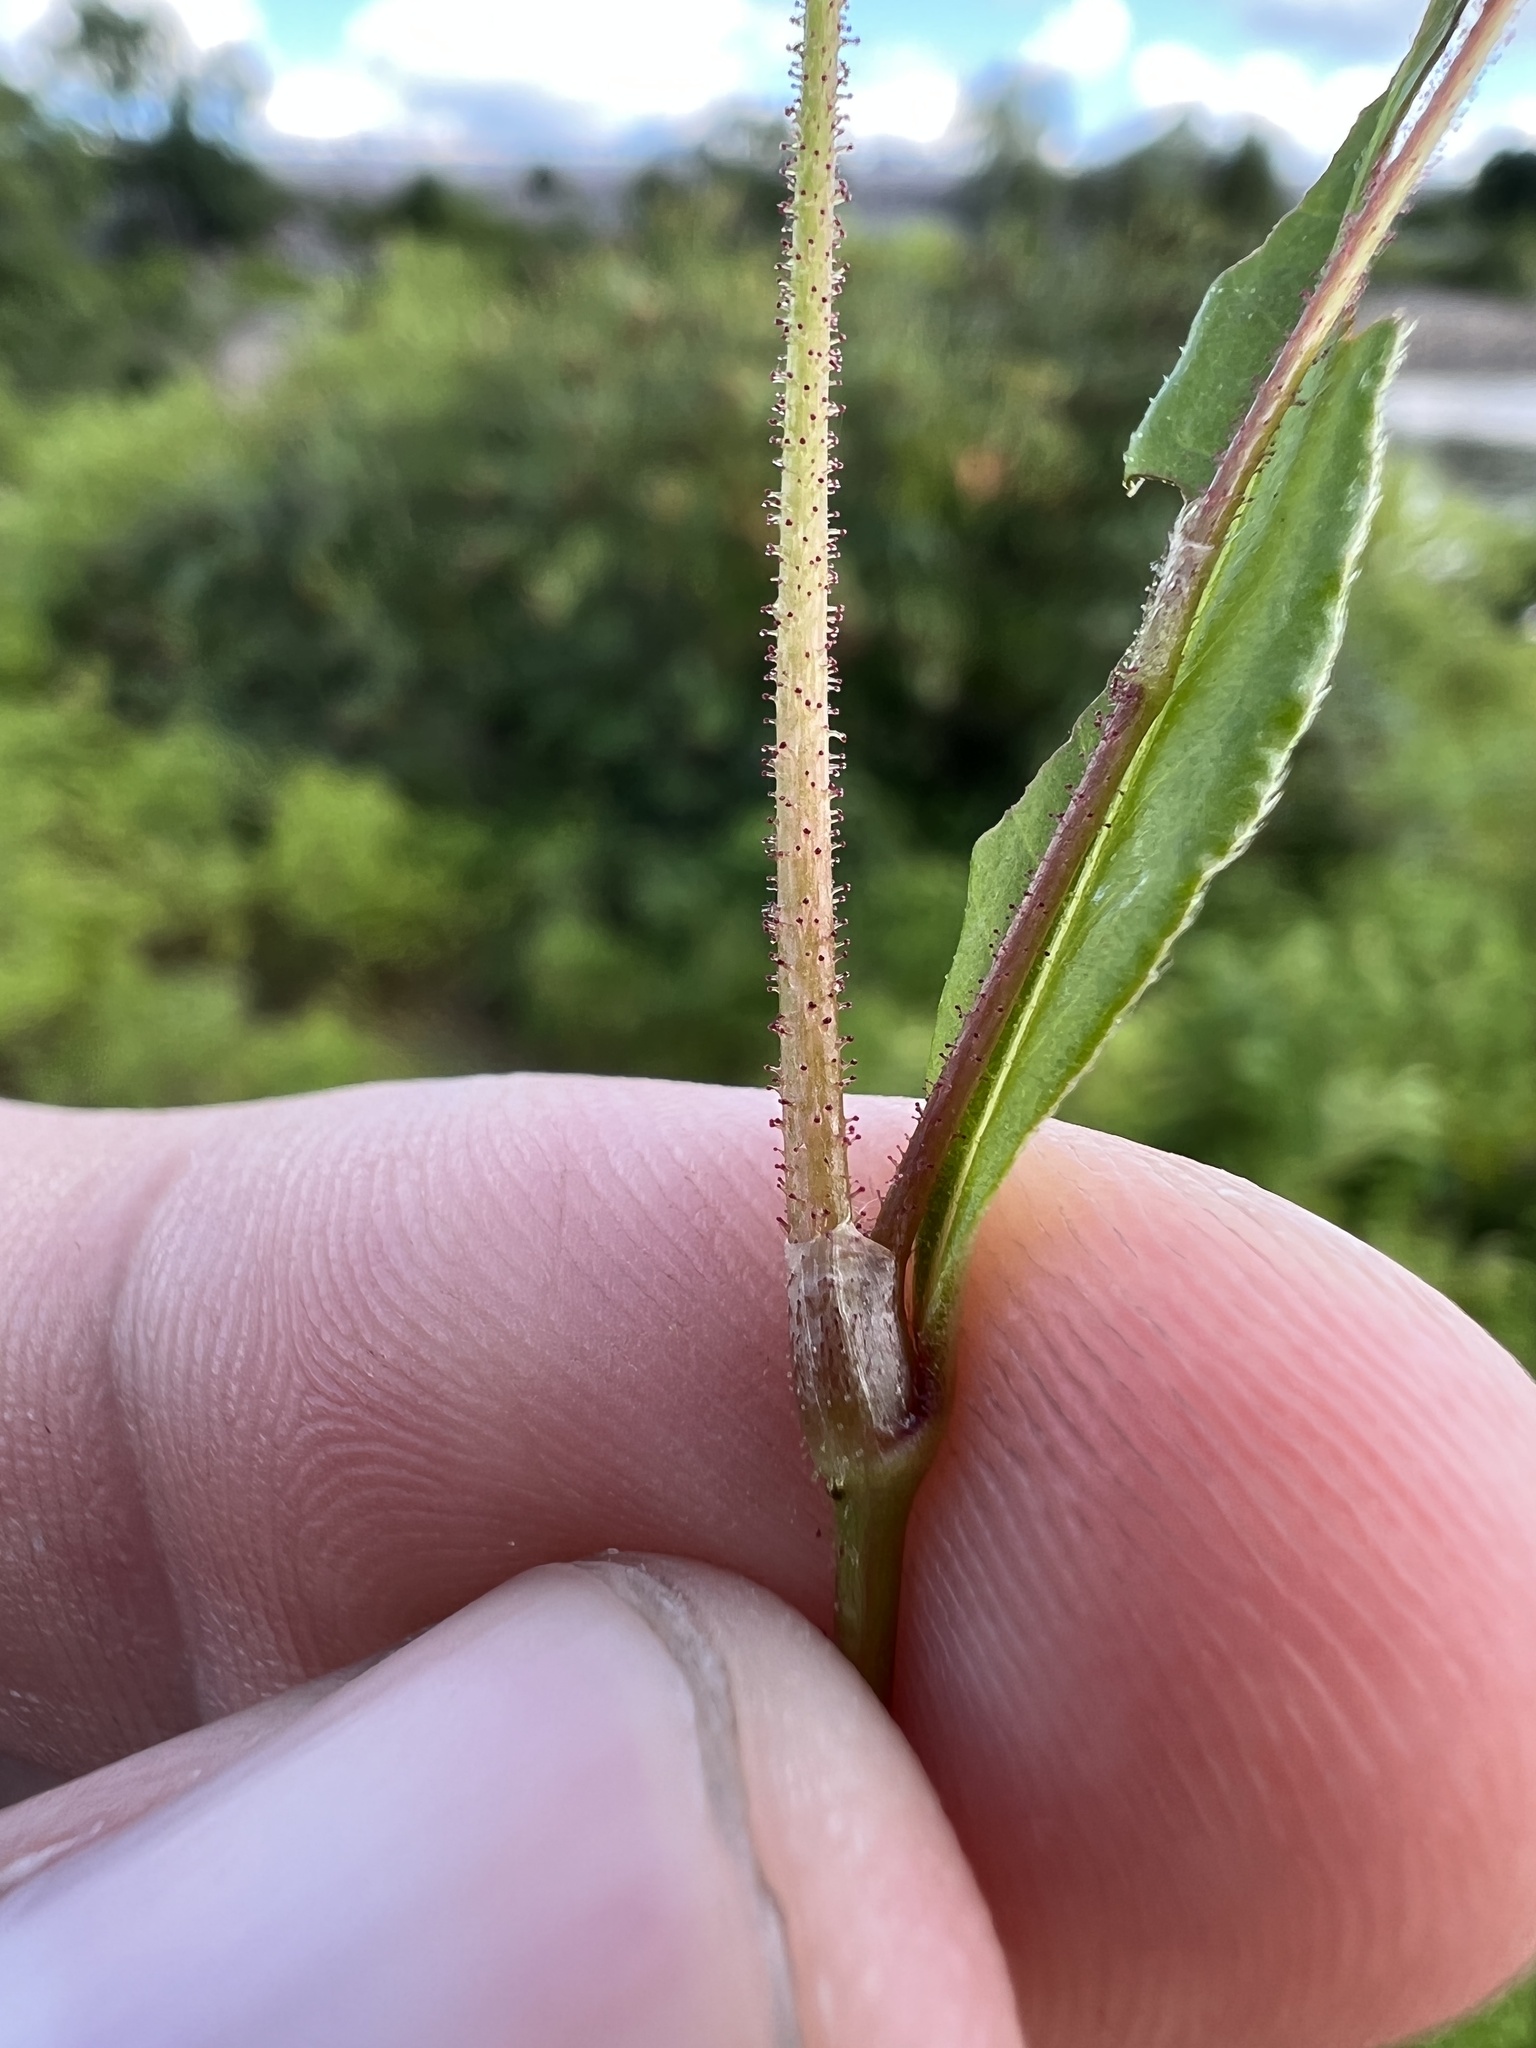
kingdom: Plantae
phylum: Tracheophyta
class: Magnoliopsida
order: Caryophyllales
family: Polygonaceae
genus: Persicaria
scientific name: Persicaria pensylvanica
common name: Pinkweed
